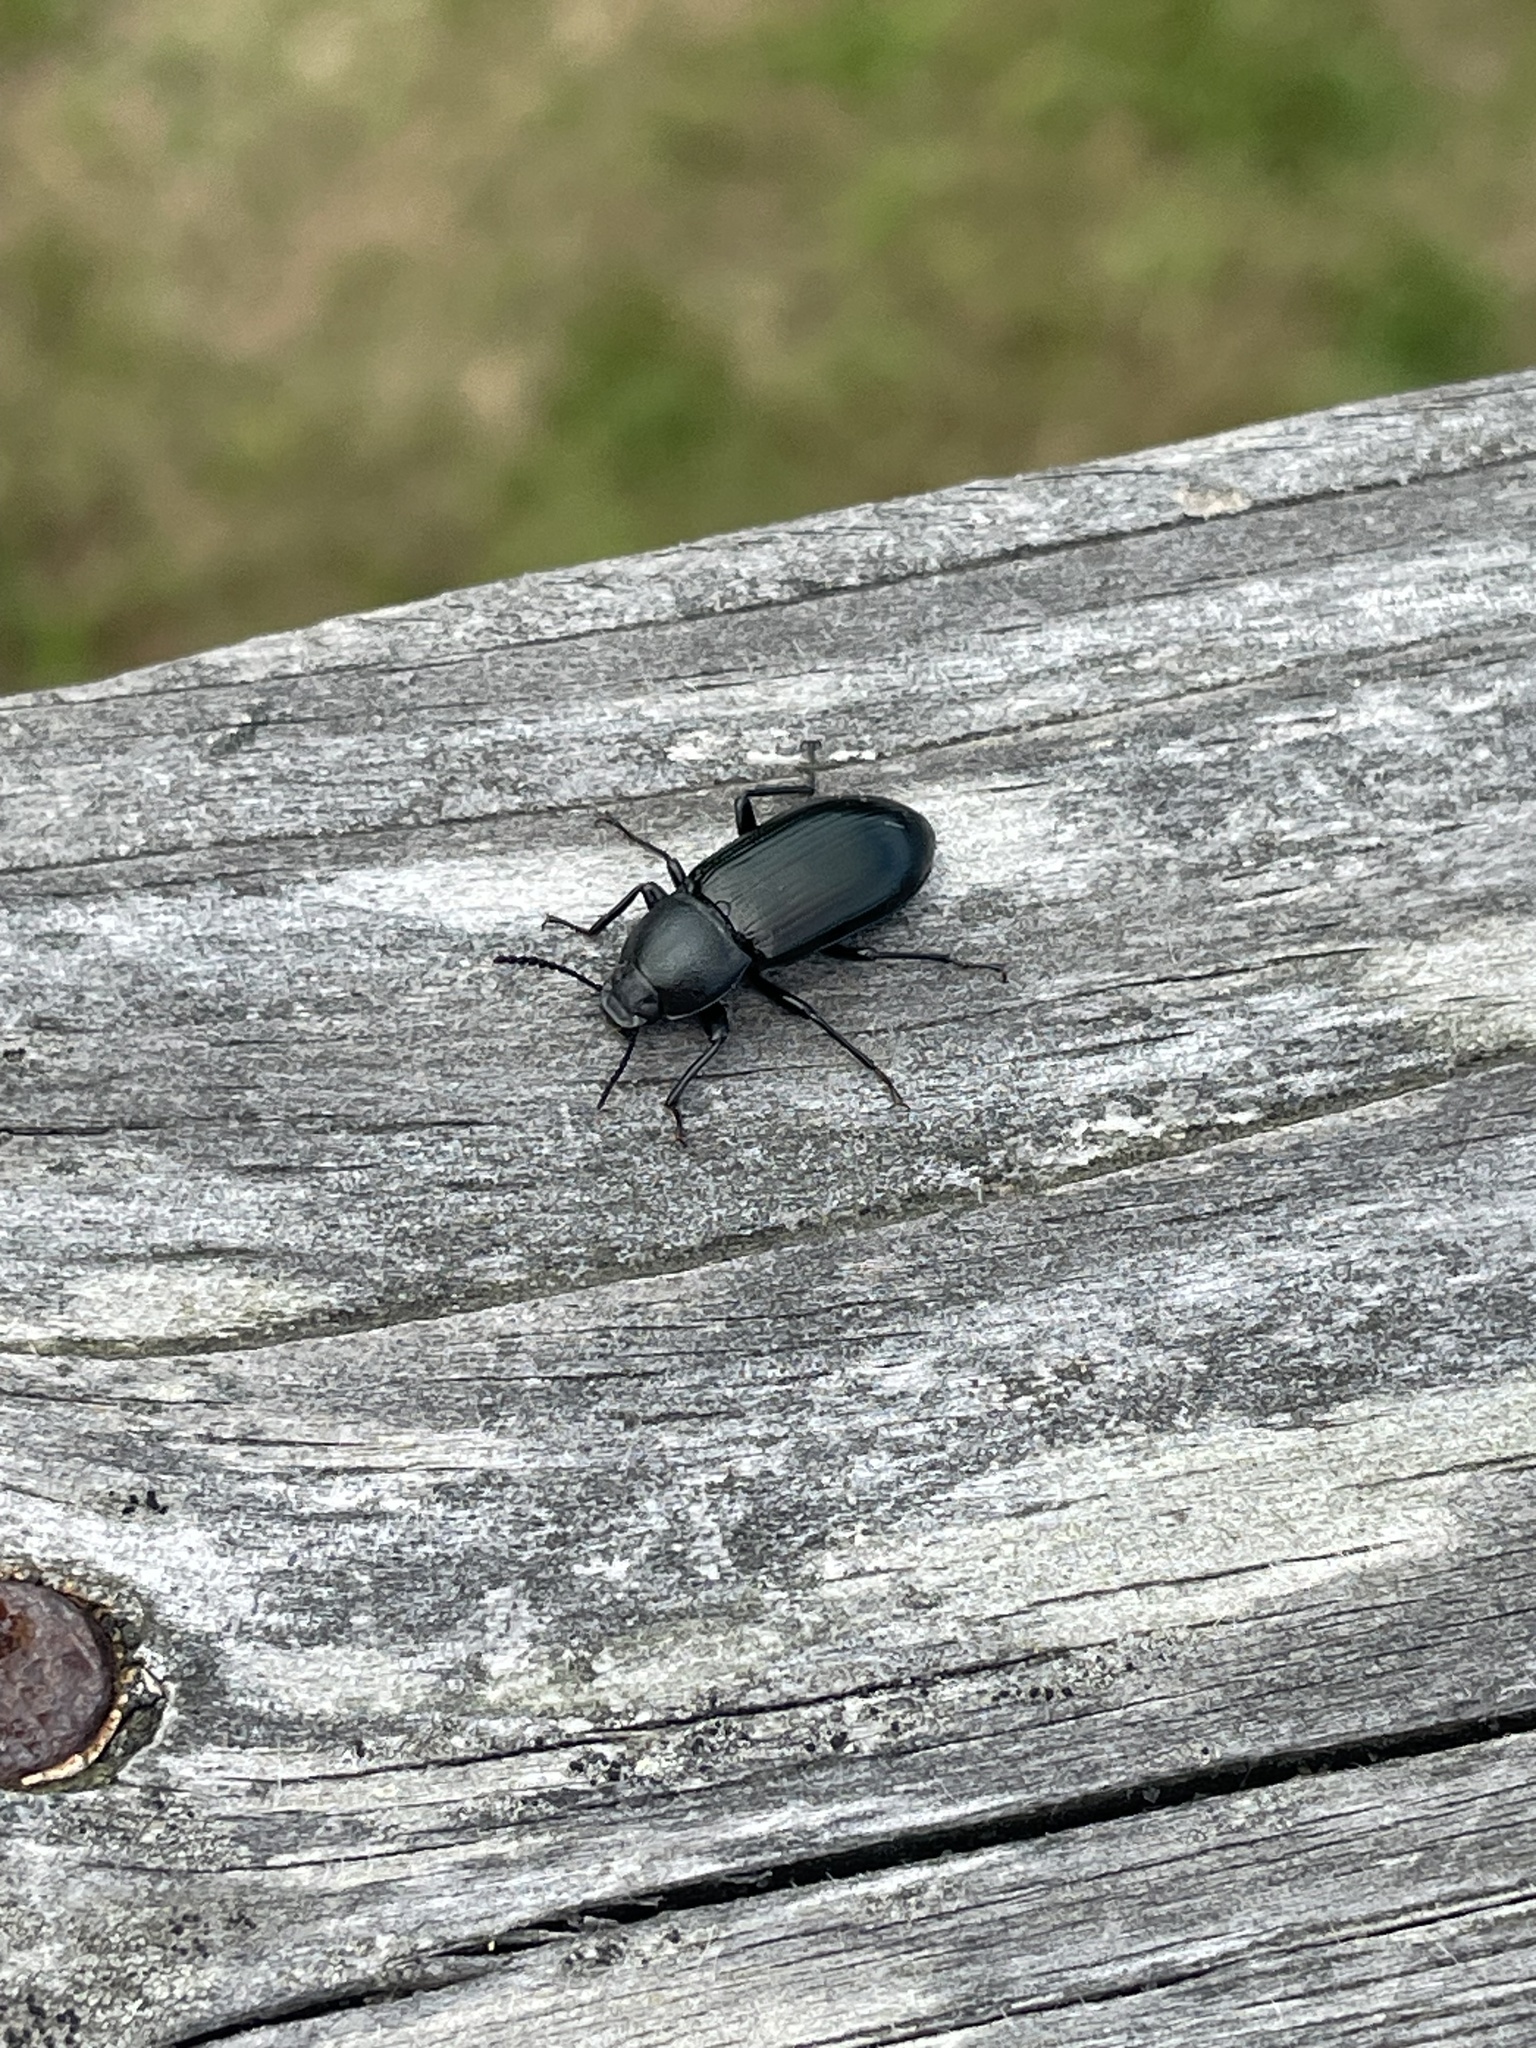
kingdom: Animalia
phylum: Arthropoda
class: Insecta
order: Coleoptera
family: Tenebrionidae
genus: Centronopus
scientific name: Centronopus calcaratus
